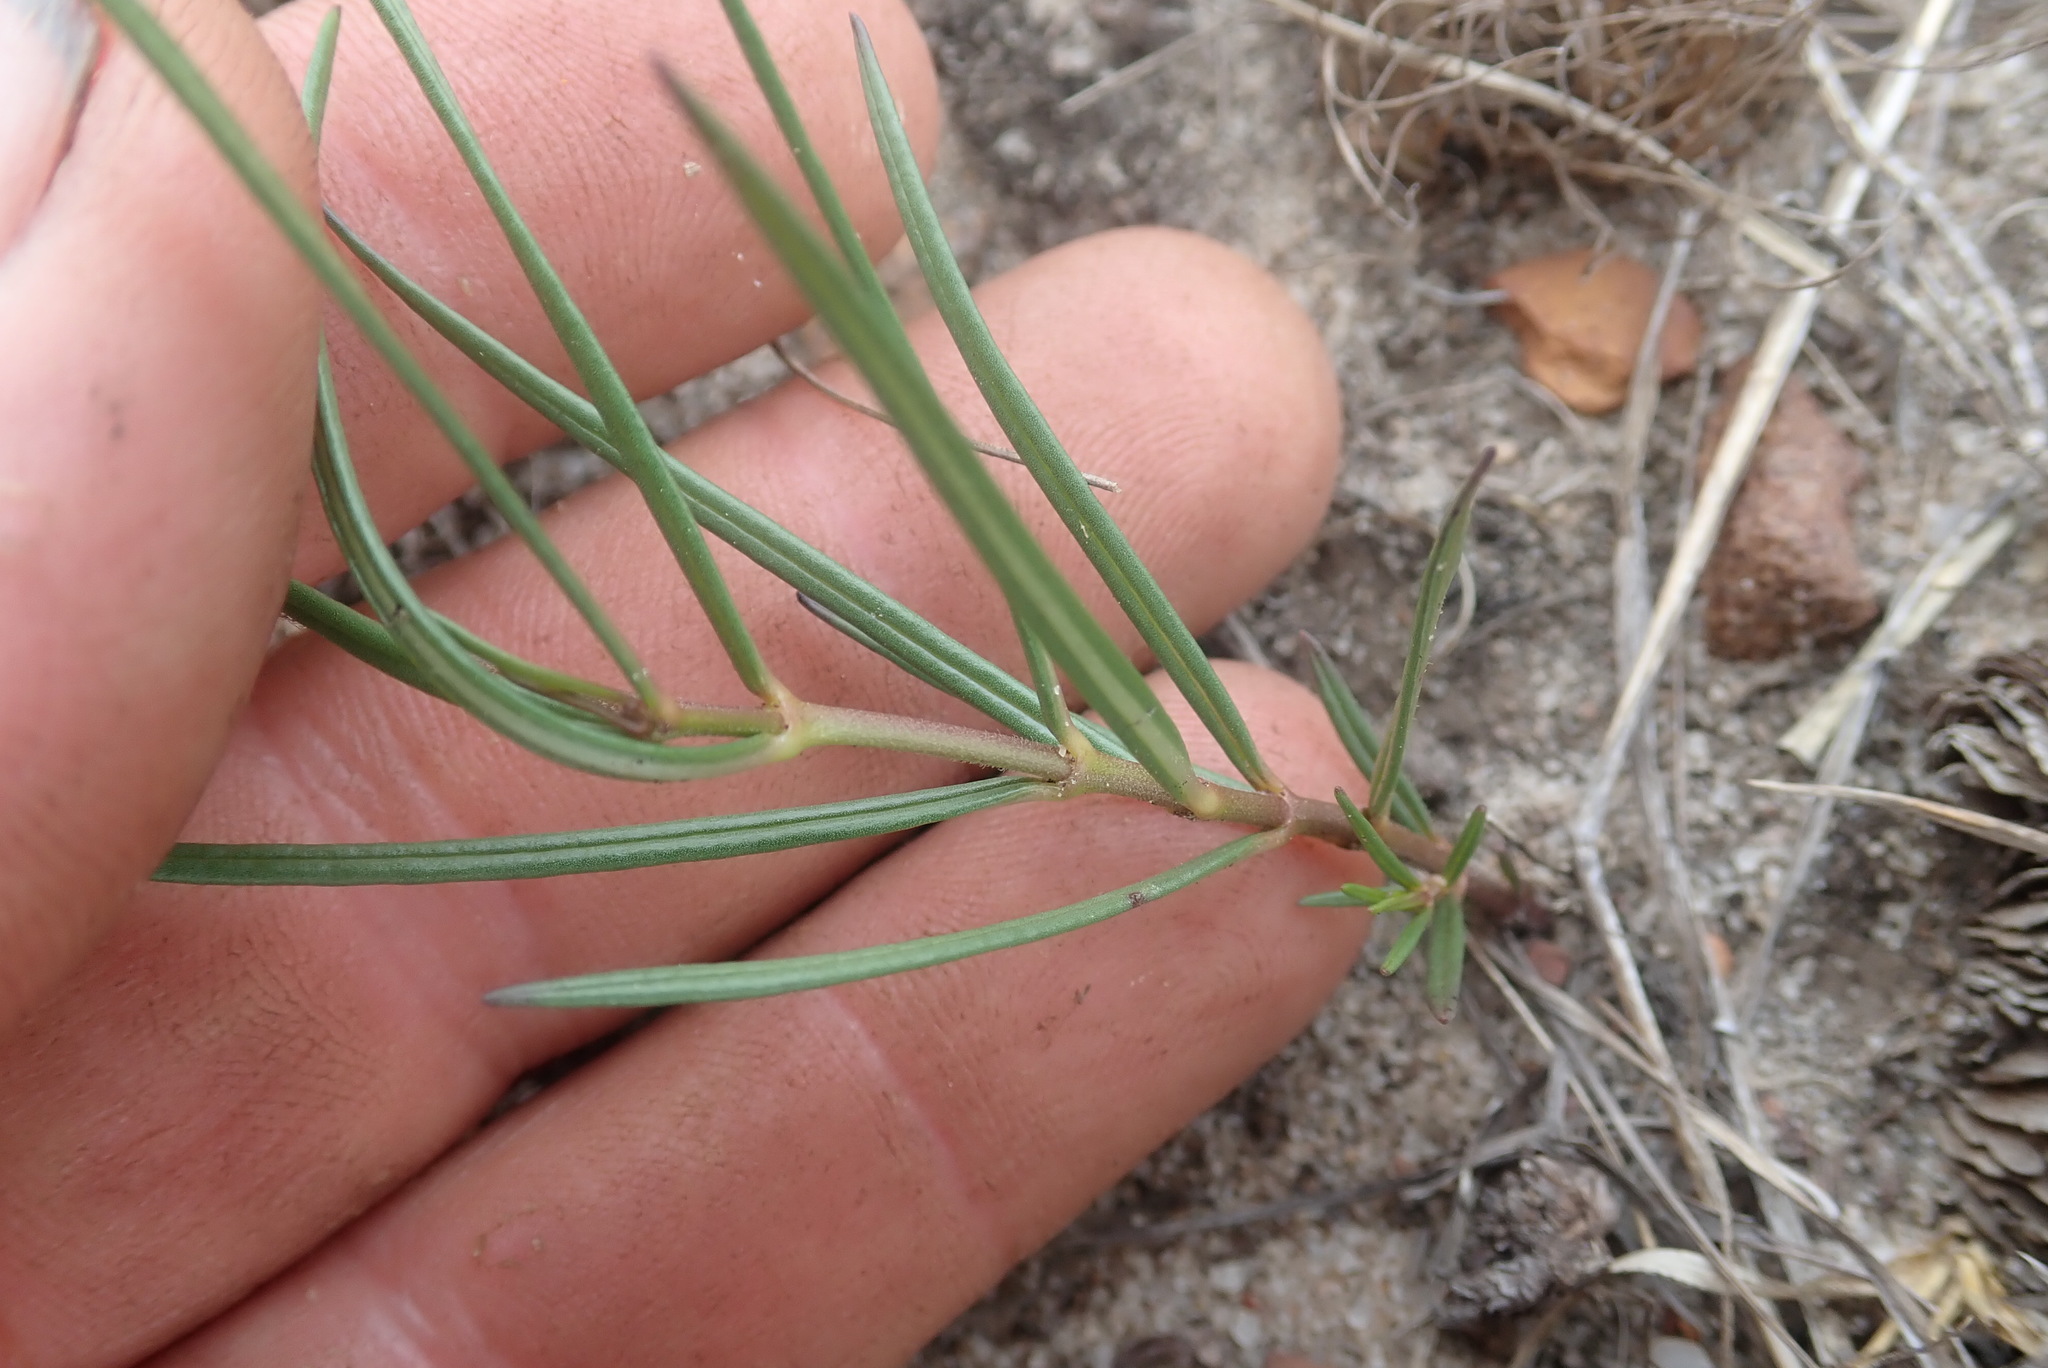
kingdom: Plantae
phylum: Tracheophyta
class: Magnoliopsida
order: Gentianales
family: Apocynaceae
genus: Asclepias
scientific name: Asclepias aurea
